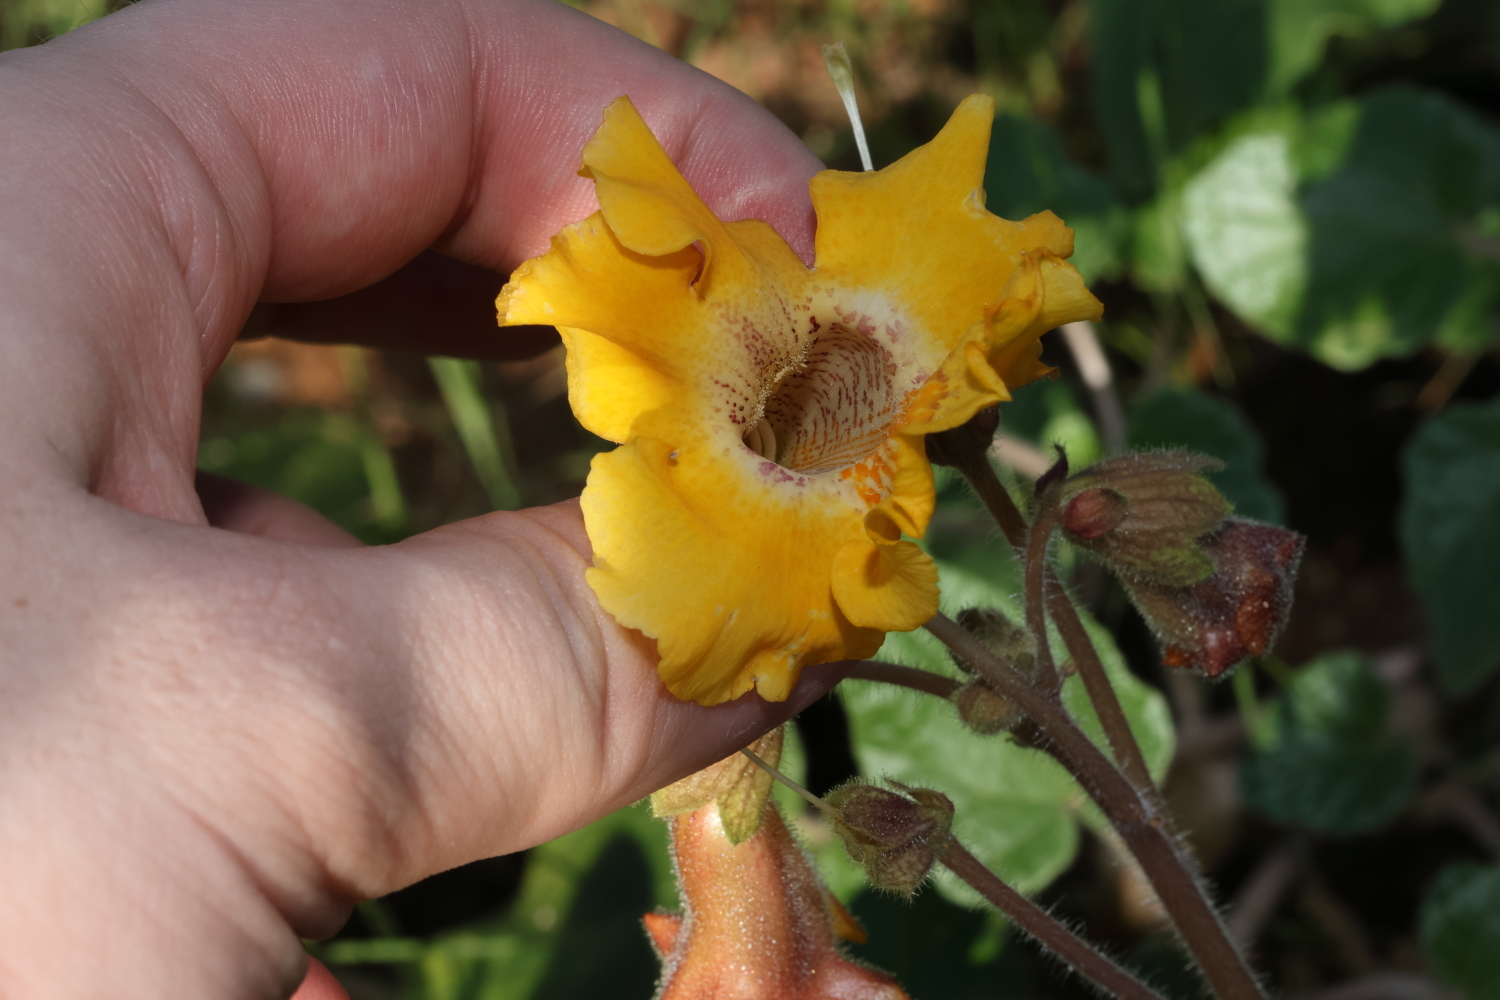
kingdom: Plantae
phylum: Tracheophyta
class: Magnoliopsida
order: Lamiales
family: Martyniaceae
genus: Proboscidea
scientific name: Proboscidea althaeifolia
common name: Desert unicorn-plant
